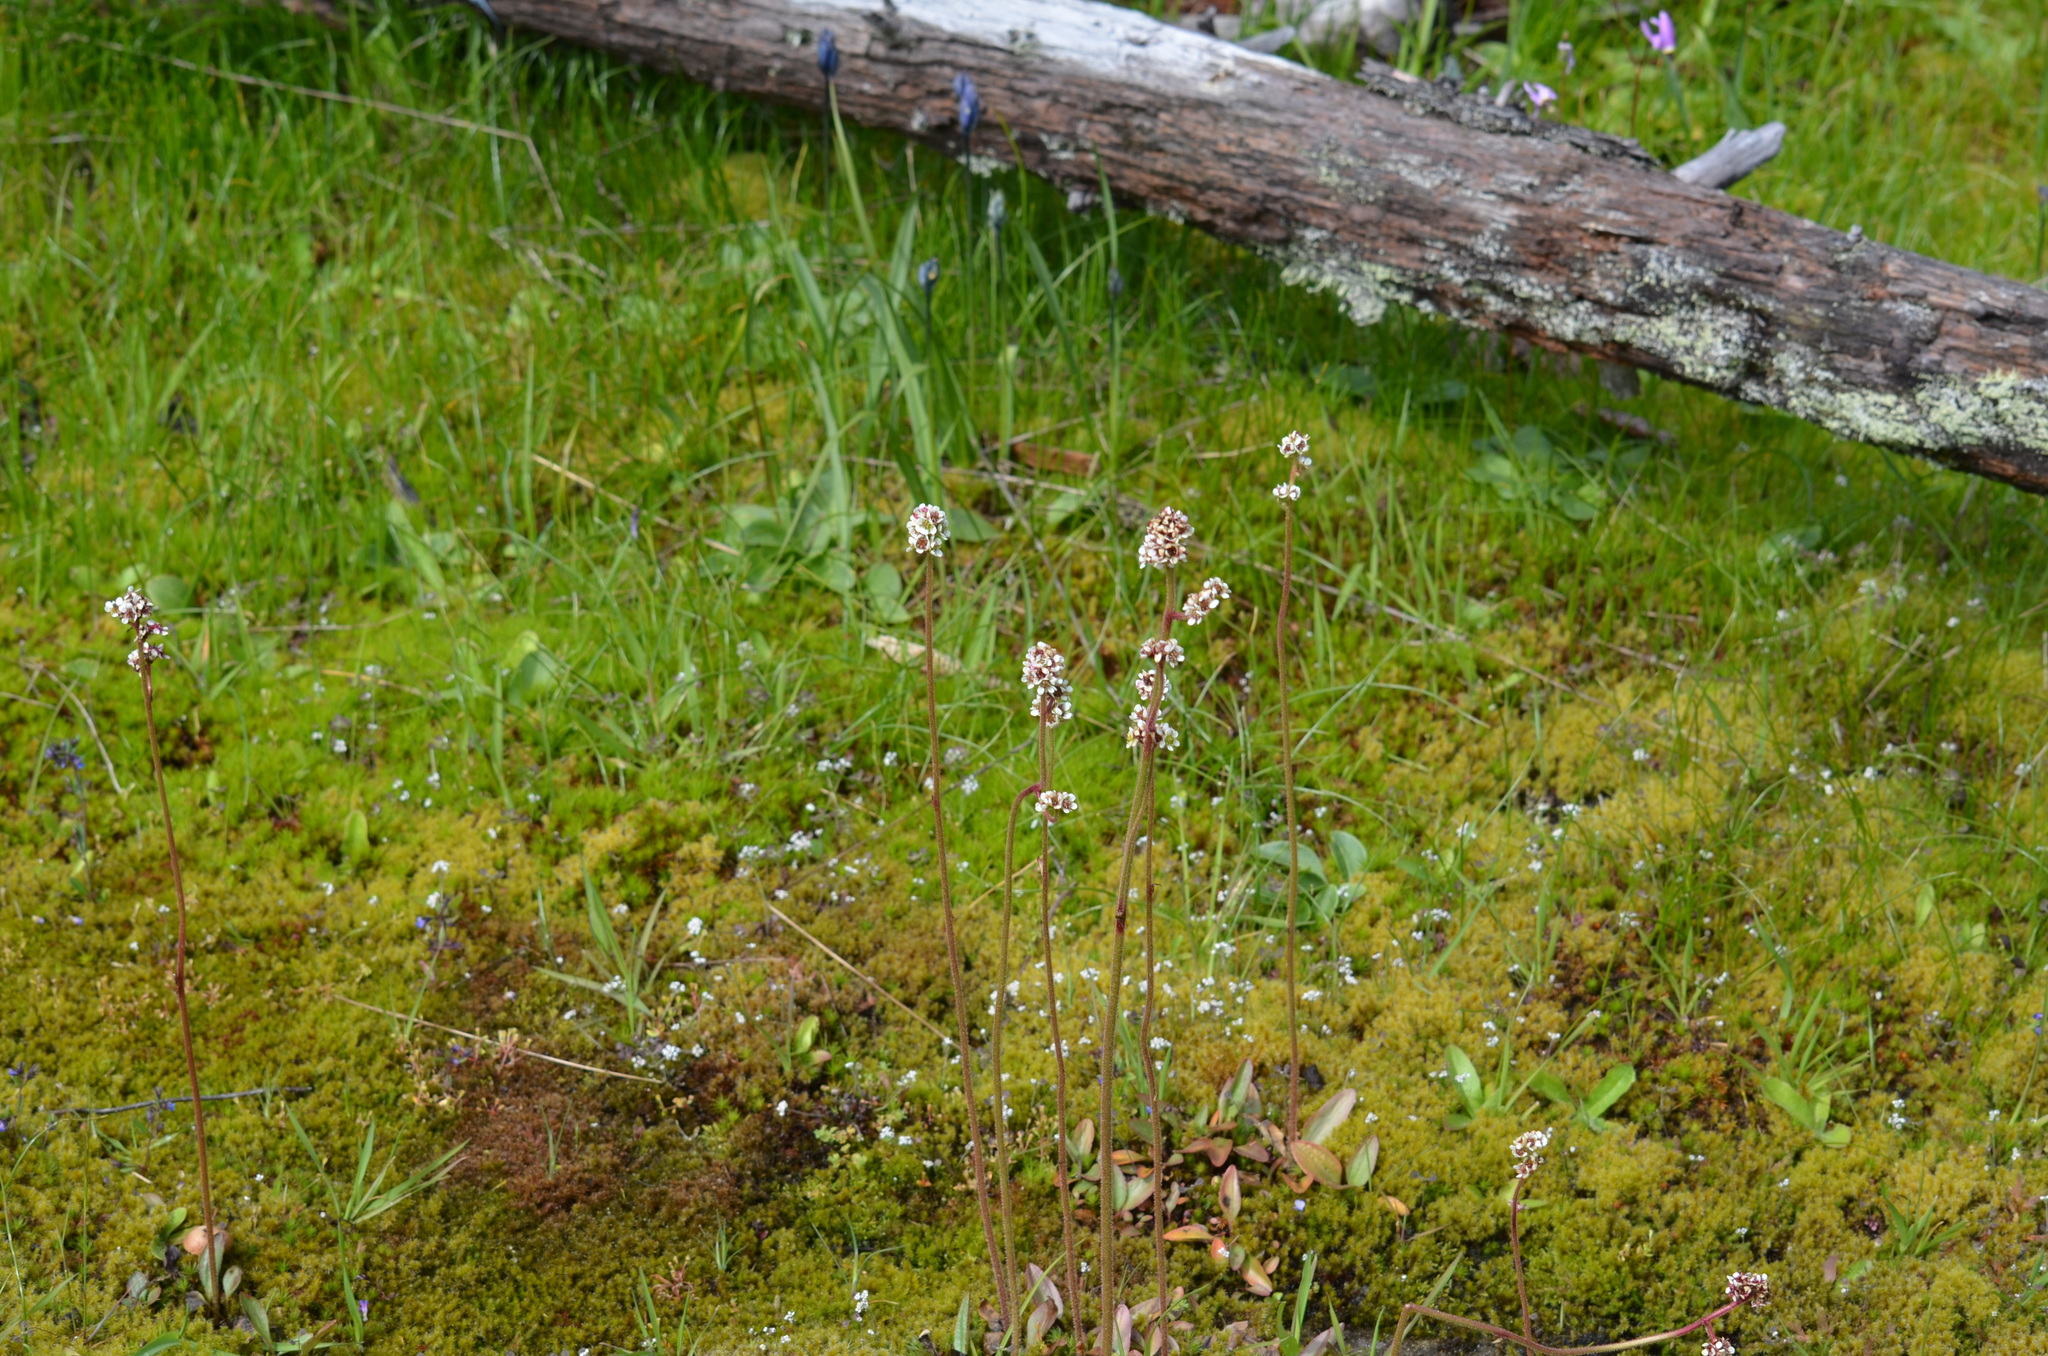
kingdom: Plantae
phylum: Tracheophyta
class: Magnoliopsida
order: Saxifragales
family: Saxifragaceae
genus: Micranthes
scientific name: Micranthes integrifolia
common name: Wholeleaf saxifrage
